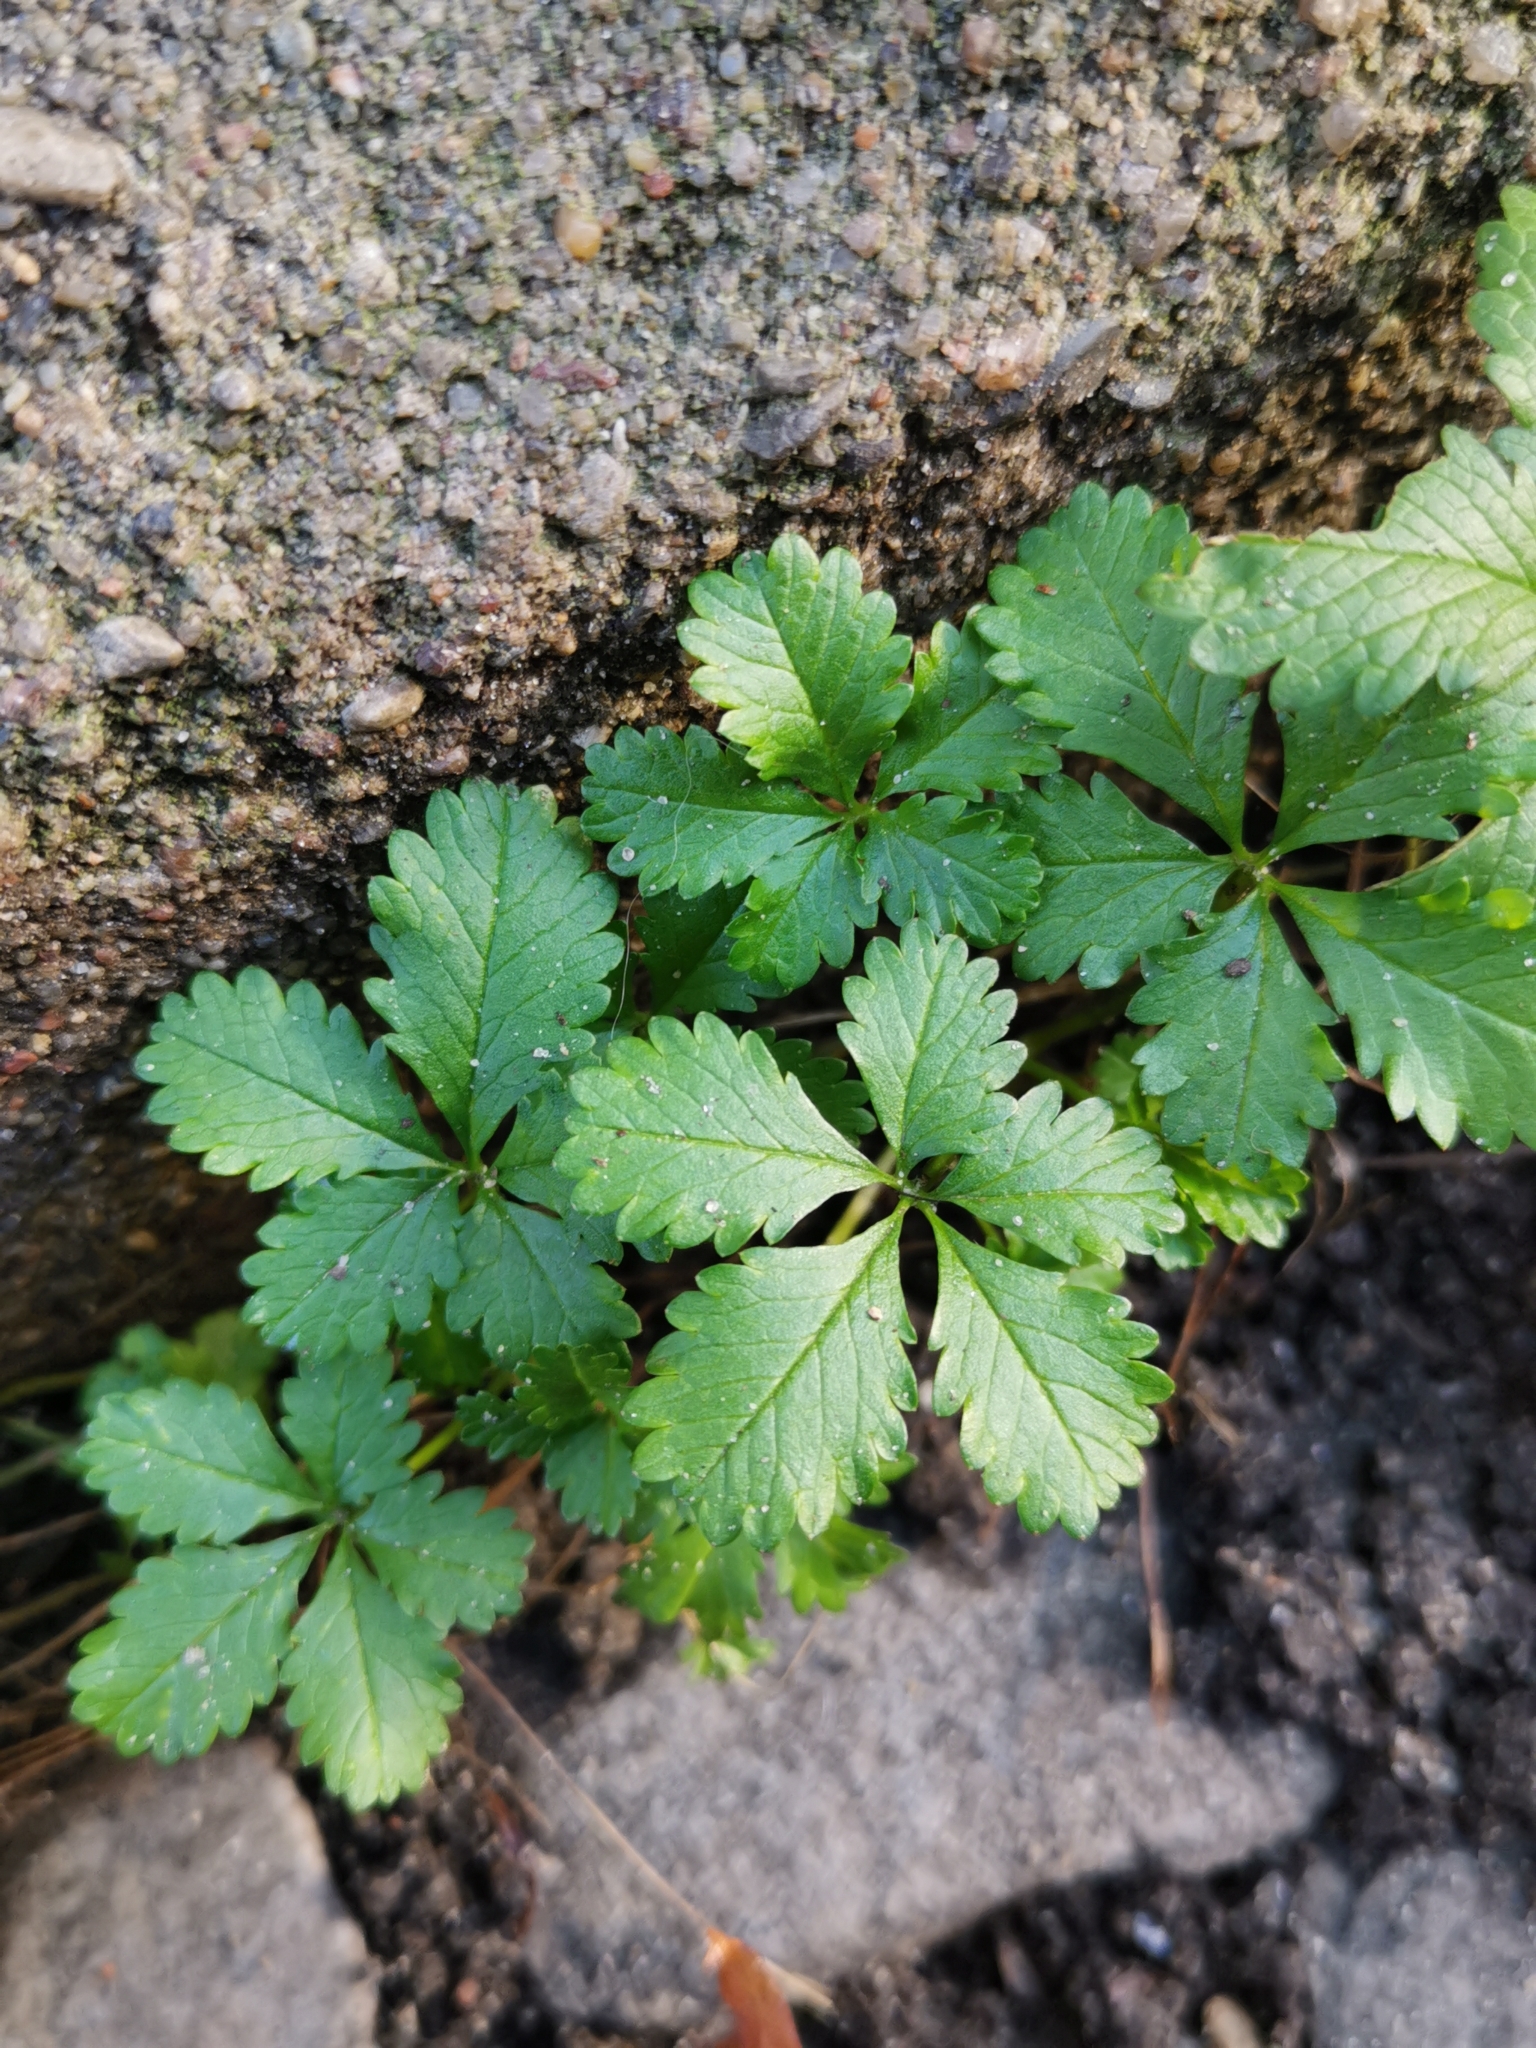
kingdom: Plantae
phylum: Tracheophyta
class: Magnoliopsida
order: Rosales
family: Rosaceae
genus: Potentilla
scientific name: Potentilla reptans
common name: Creeping cinquefoil
